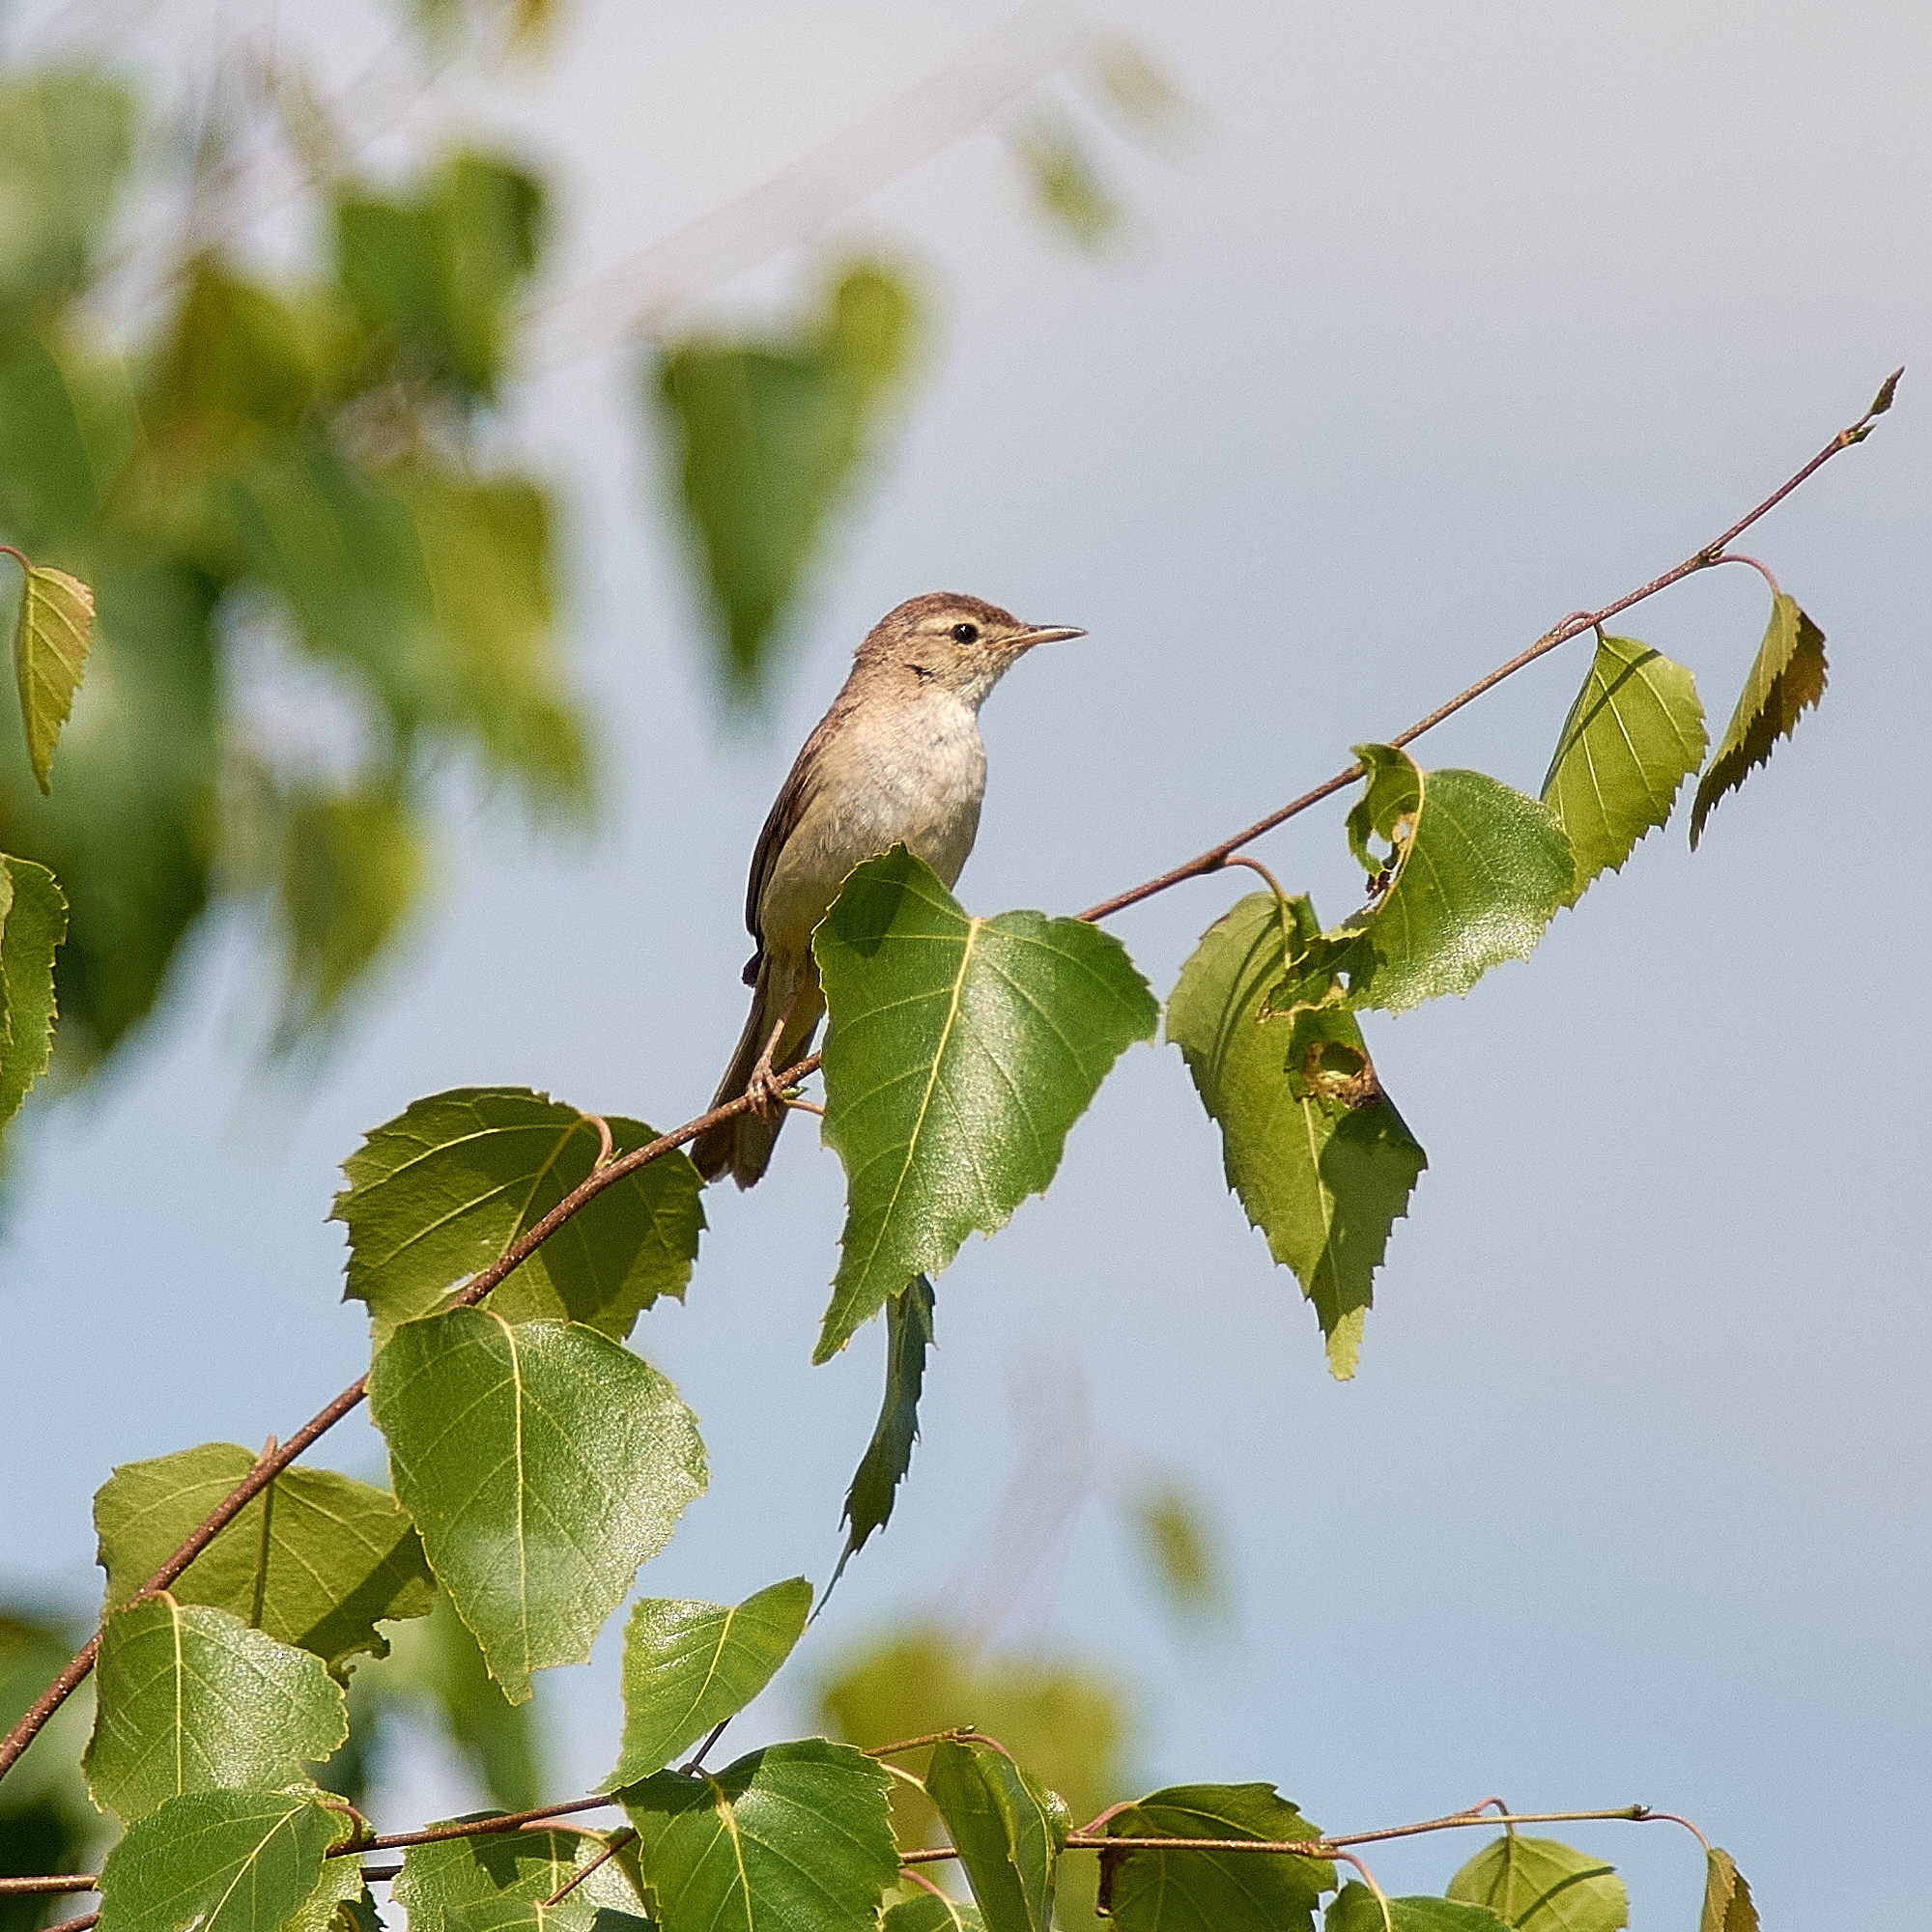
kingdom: Animalia
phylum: Chordata
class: Aves
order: Passeriformes
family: Acrocephalidae
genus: Iduna
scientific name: Iduna caligata
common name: Booted warbler
